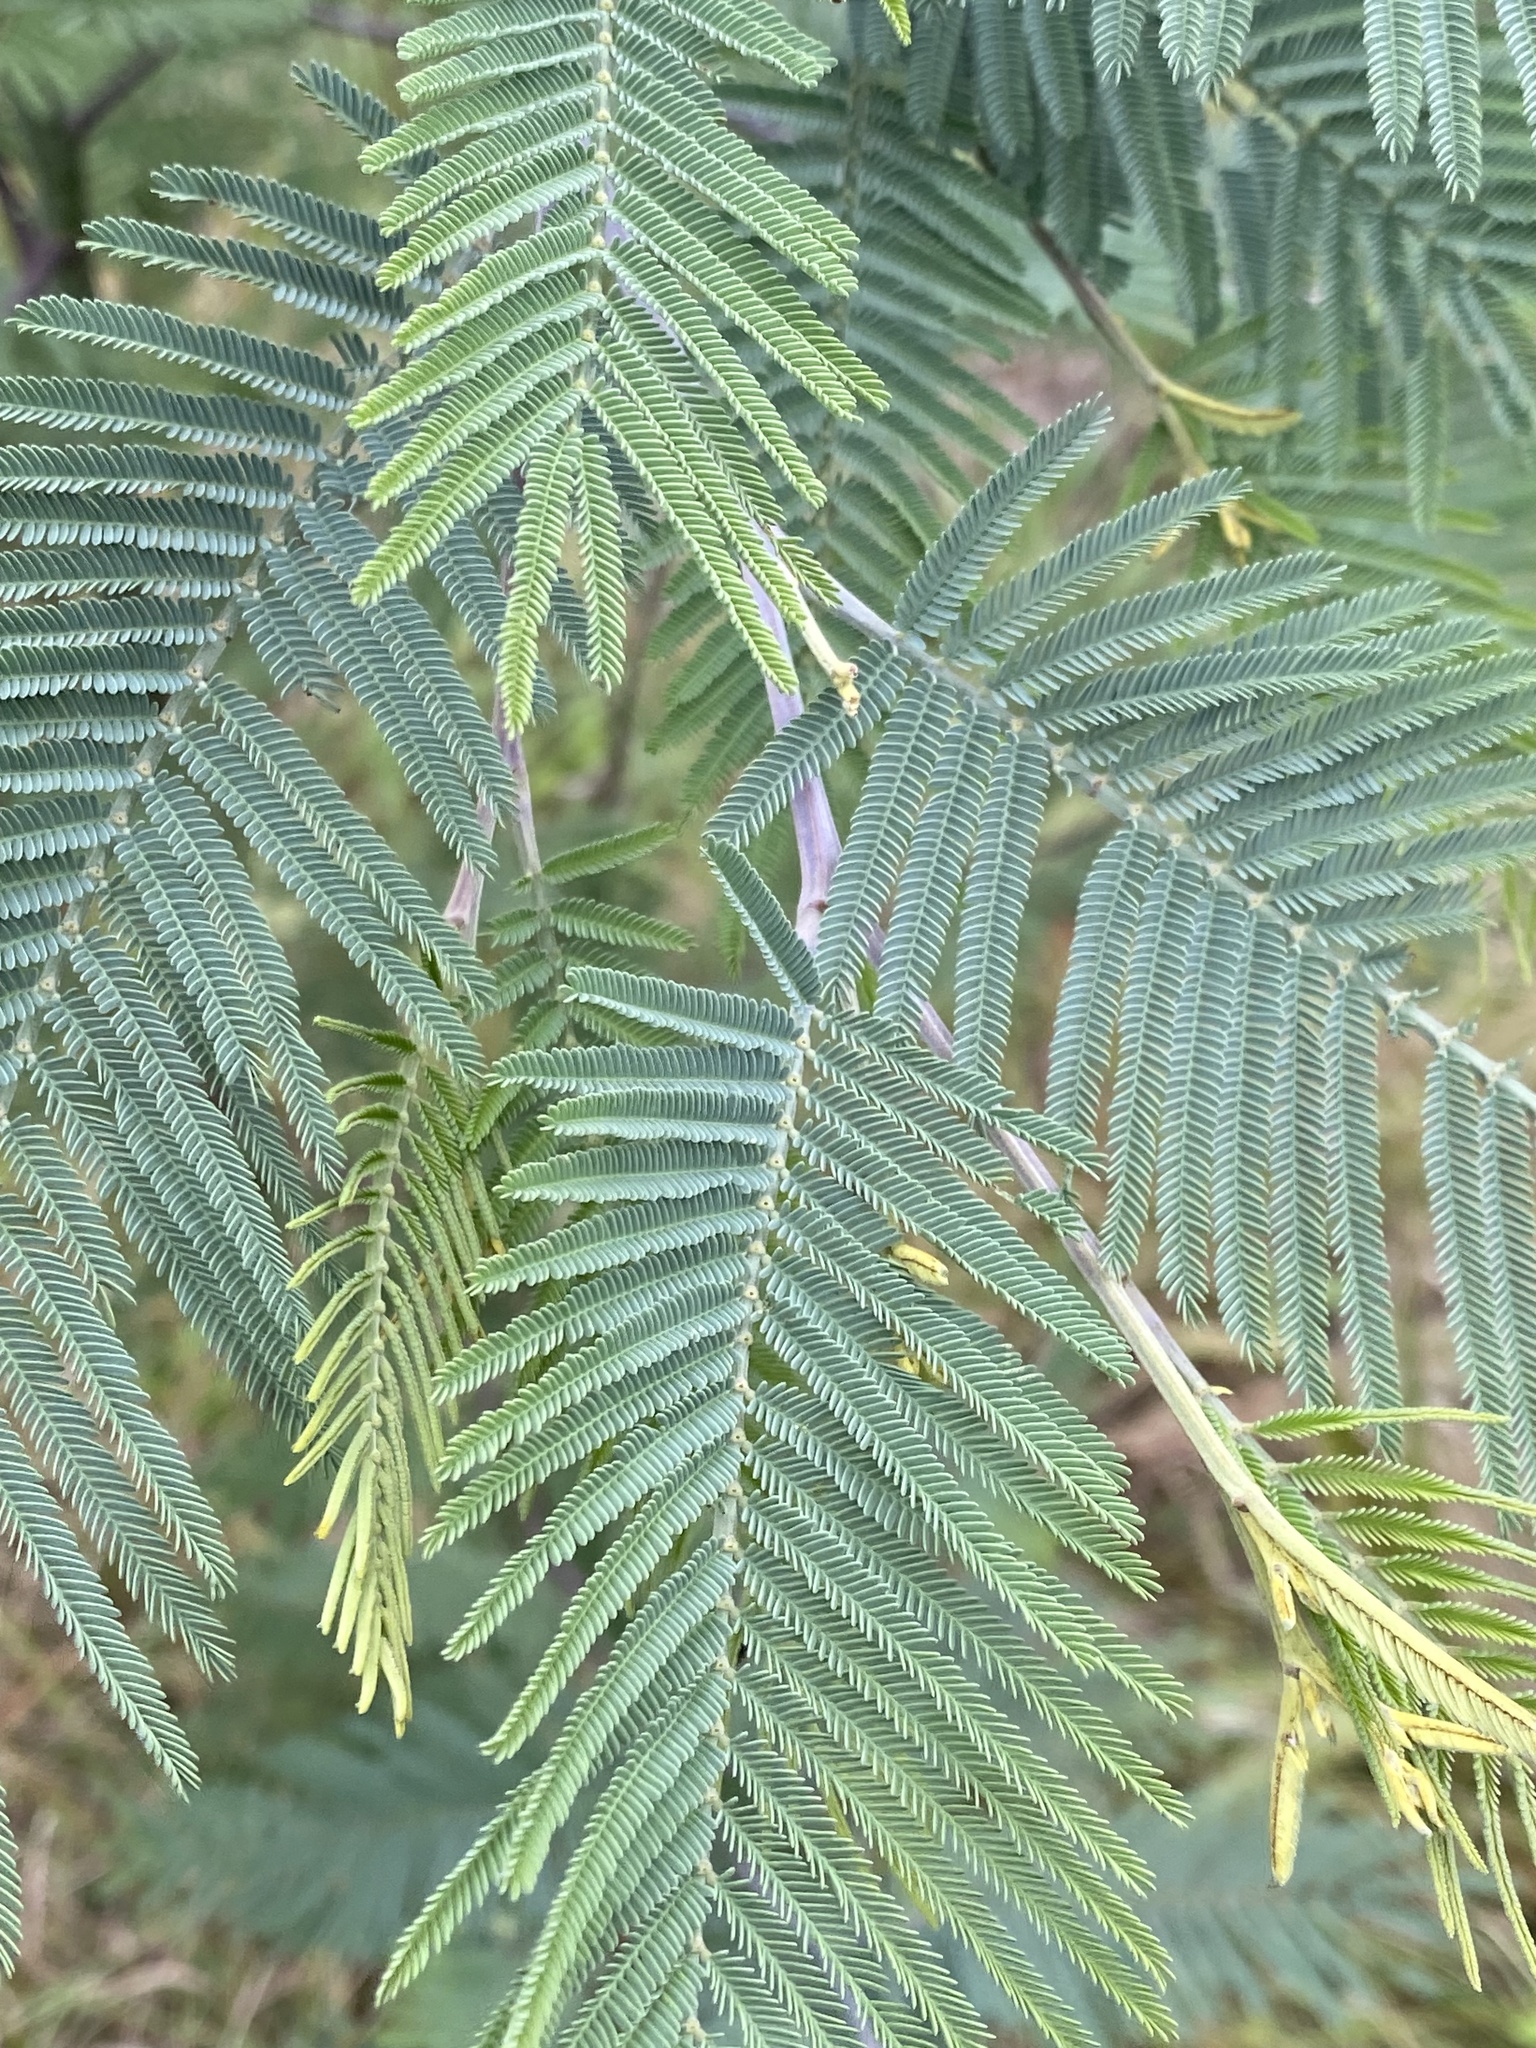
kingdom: Plantae
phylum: Tracheophyta
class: Magnoliopsida
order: Fabales
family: Fabaceae
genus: Acacia
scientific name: Acacia dealbata
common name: Silver wattle
